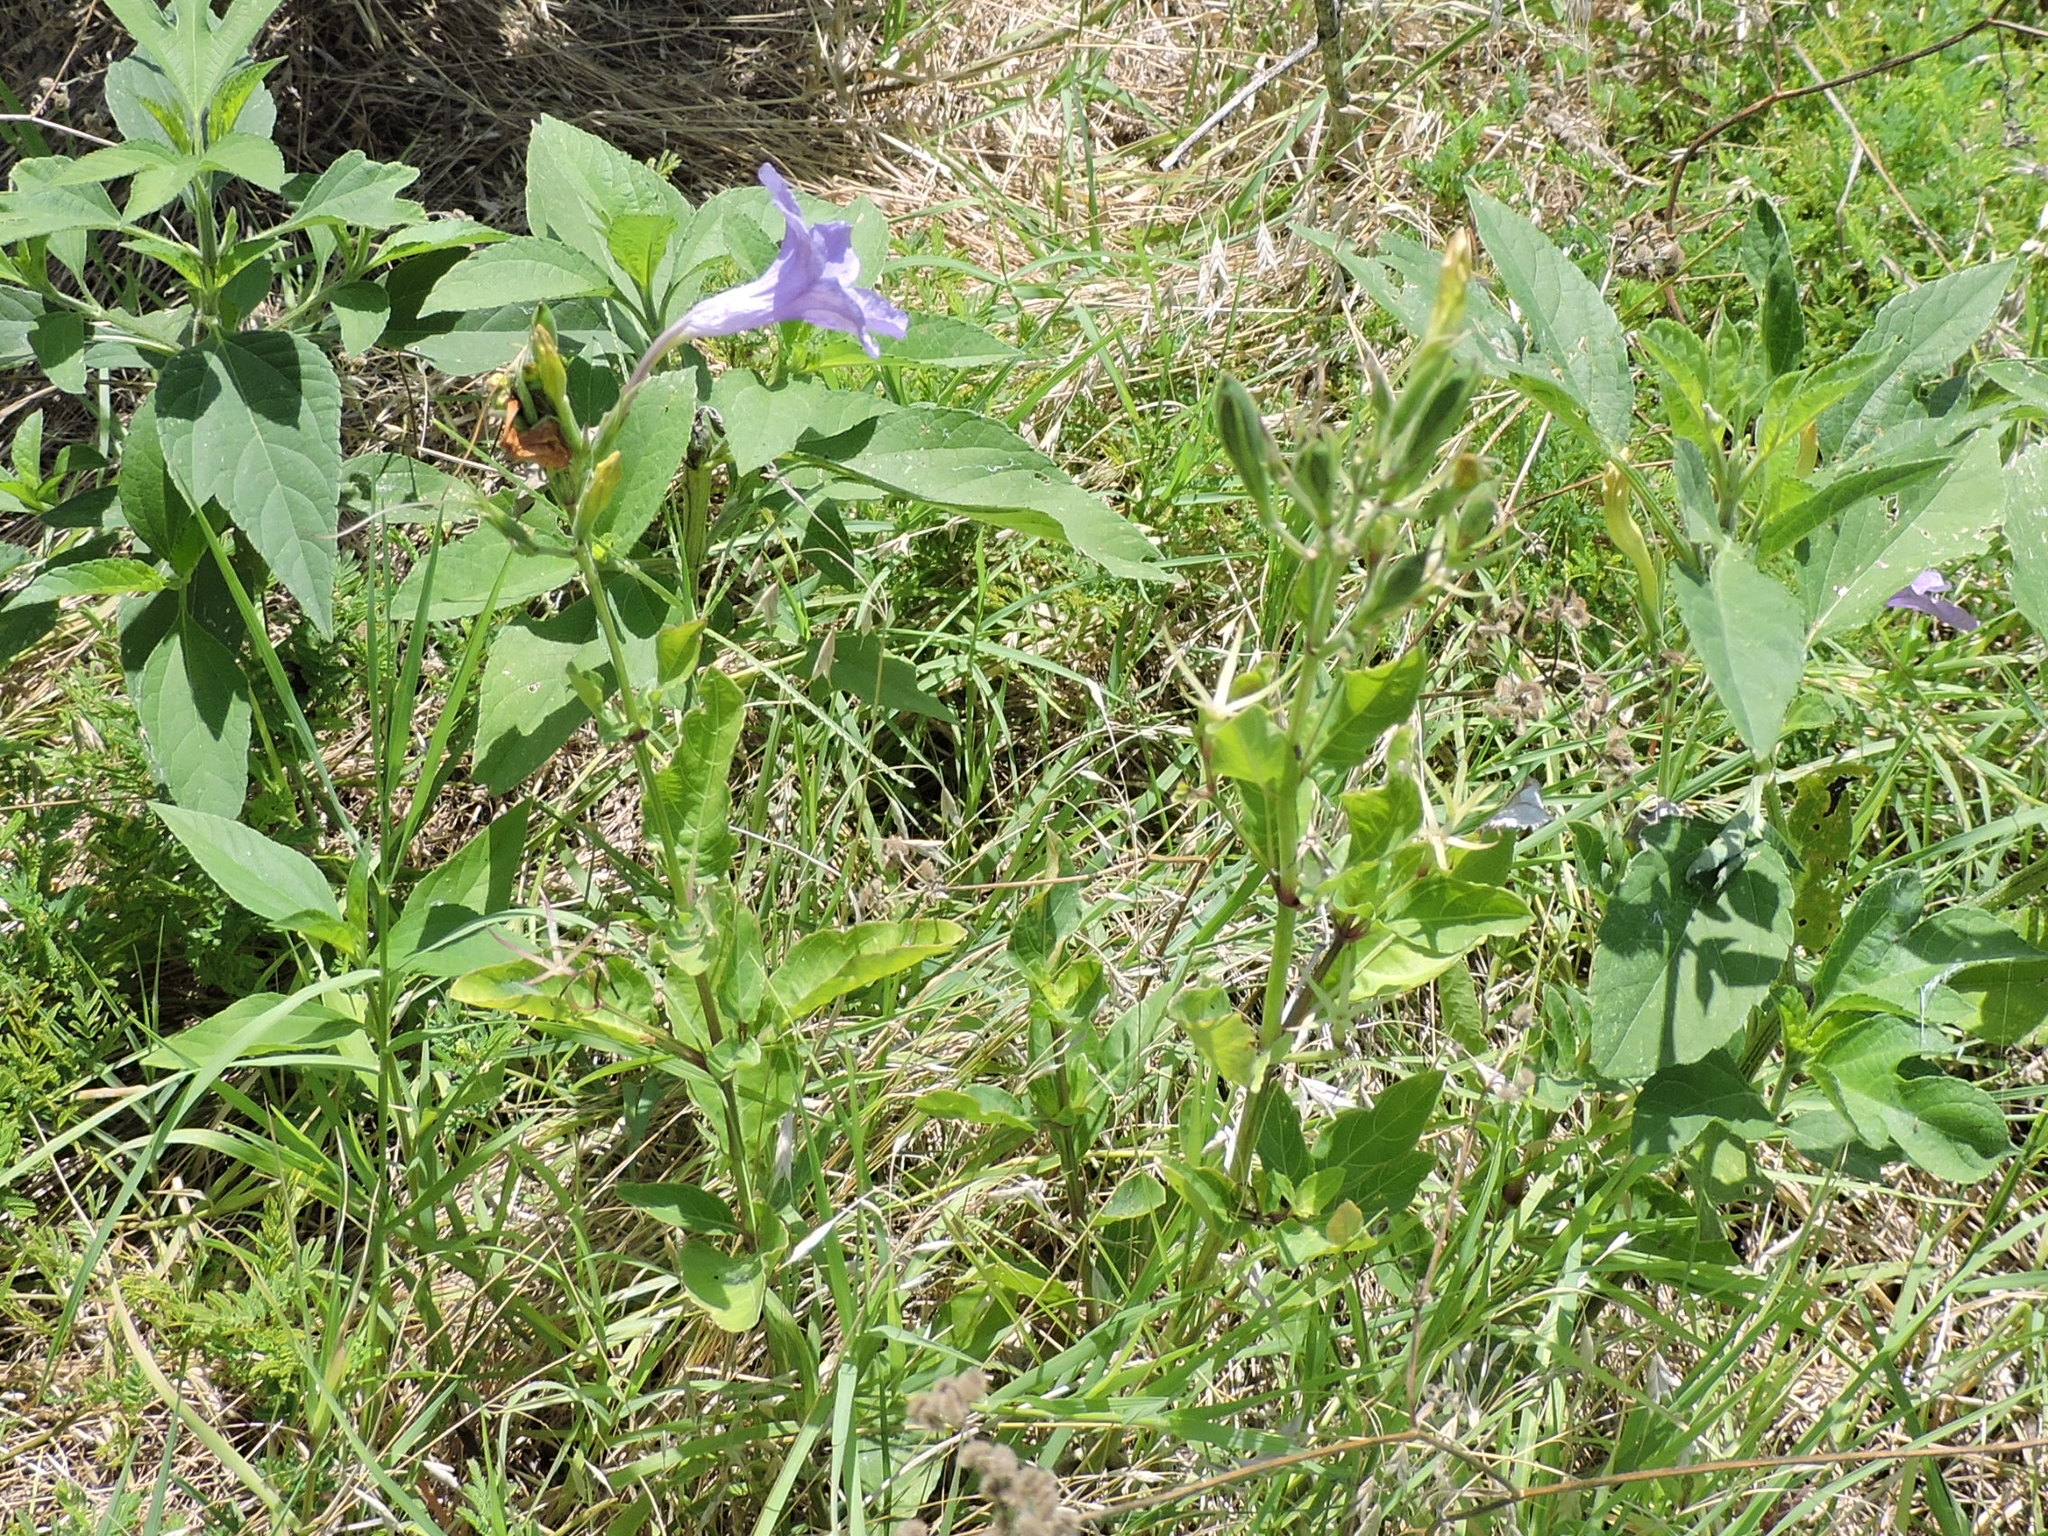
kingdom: Plantae
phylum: Tracheophyta
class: Magnoliopsida
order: Lamiales
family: Acanthaceae
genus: Ruellia
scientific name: Ruellia ciliatiflora
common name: Hairyflower wild petunia
